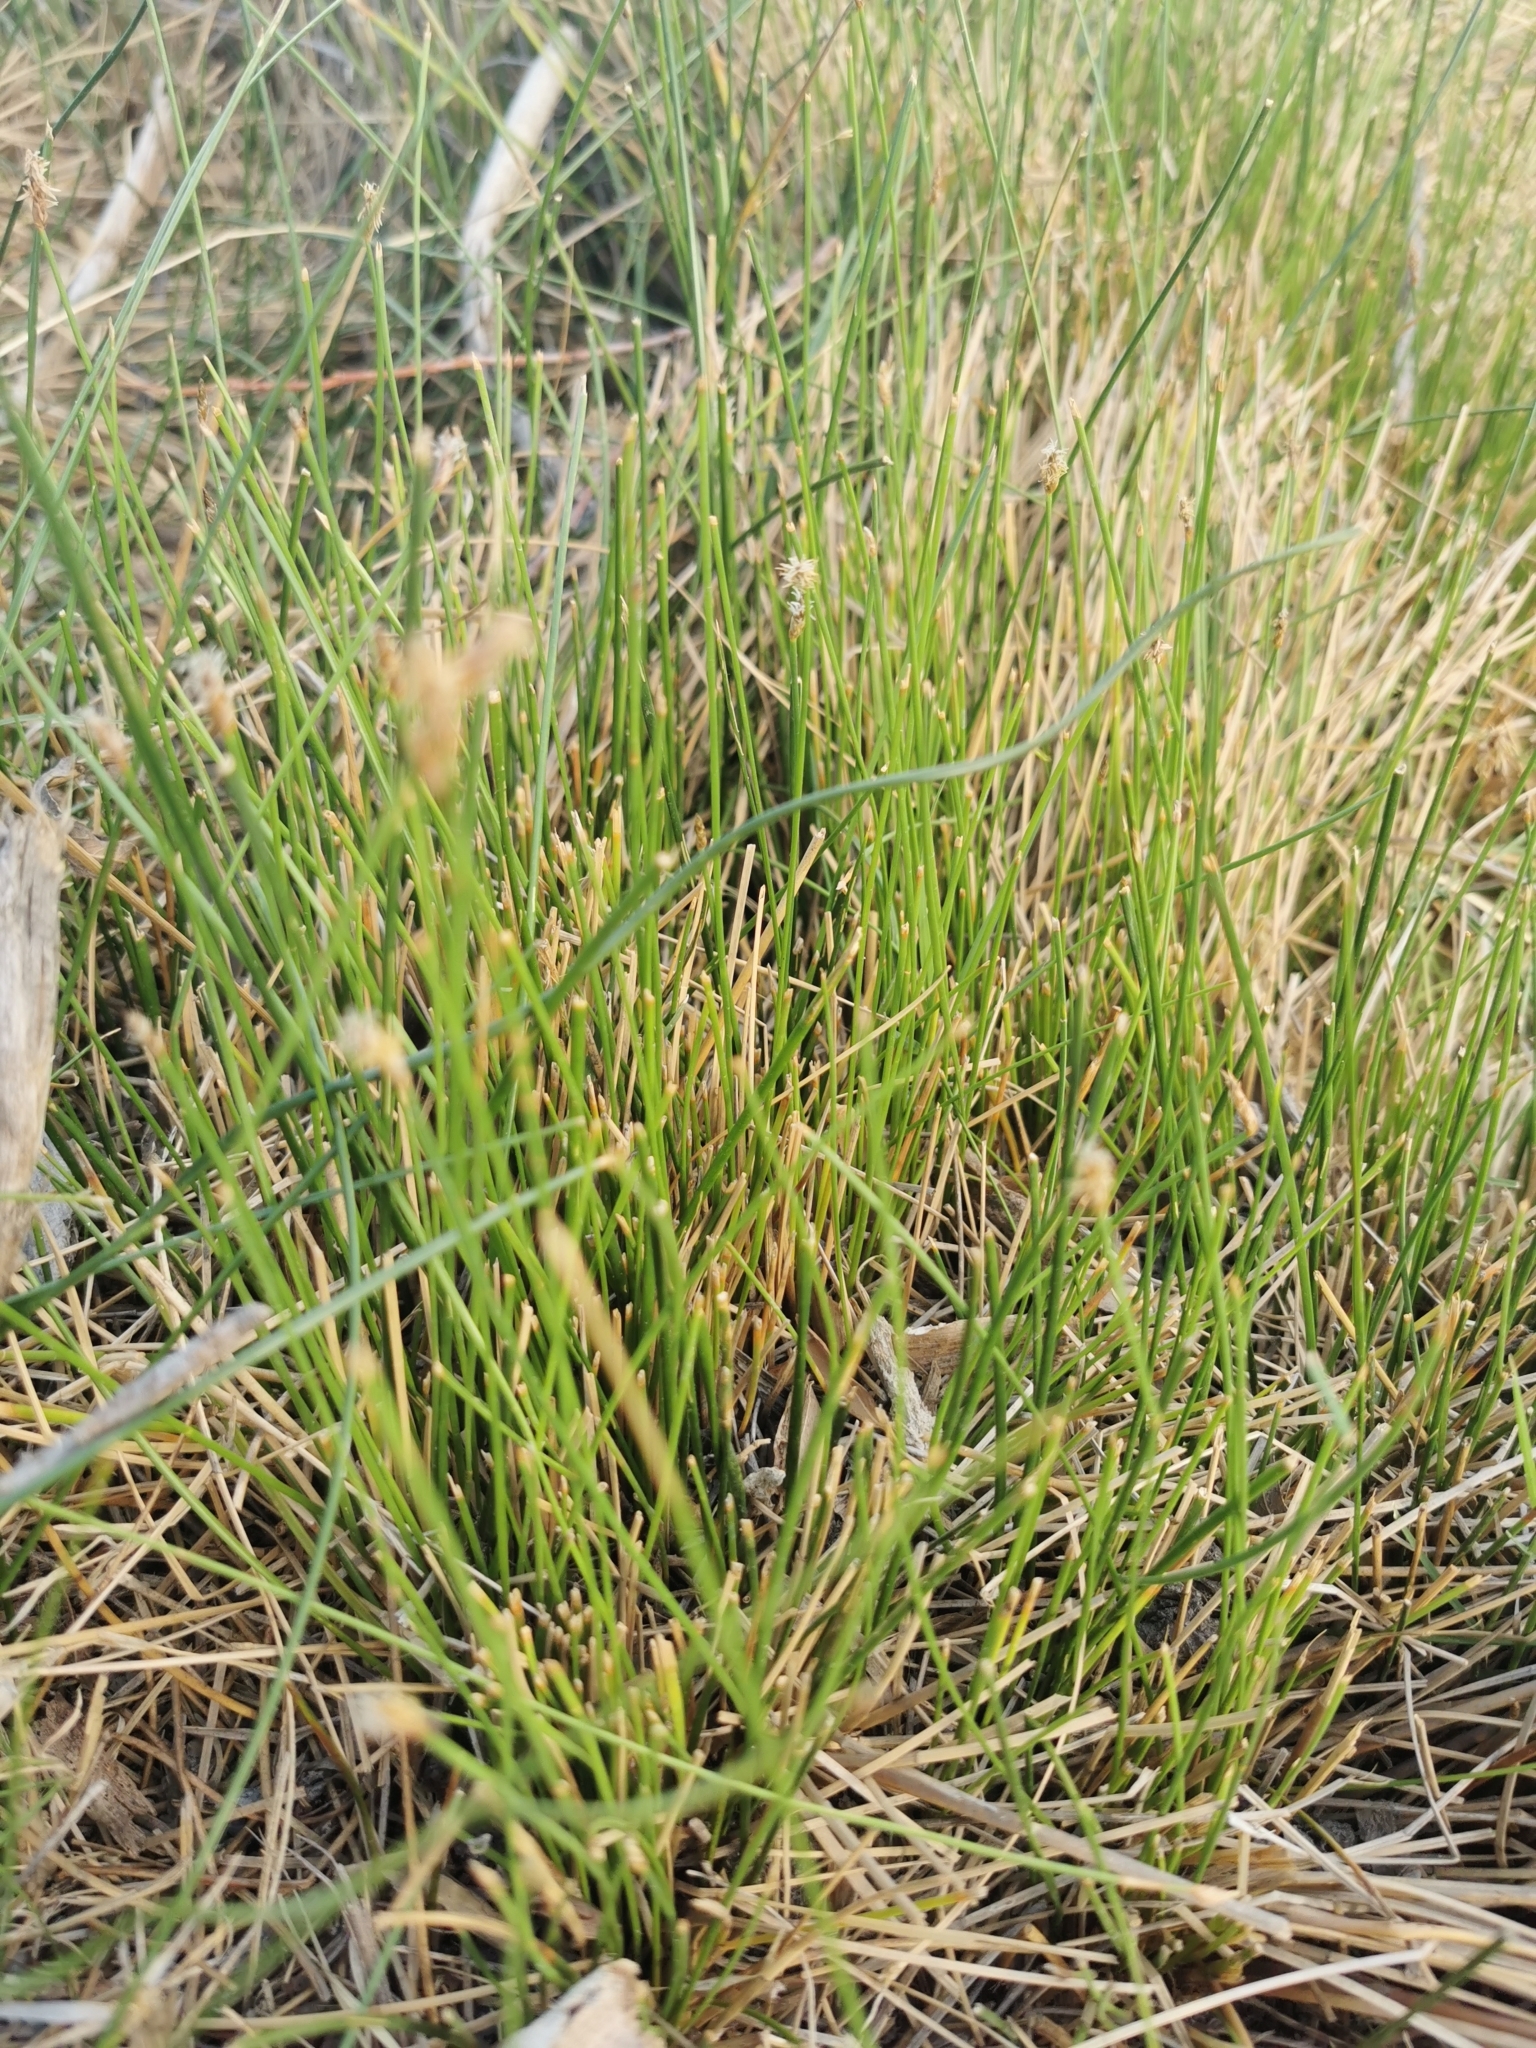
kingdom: Plantae
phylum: Tracheophyta
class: Liliopsida
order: Poales
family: Cyperaceae
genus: Eleocharis
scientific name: Eleocharis rostellata
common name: Walking sedge
